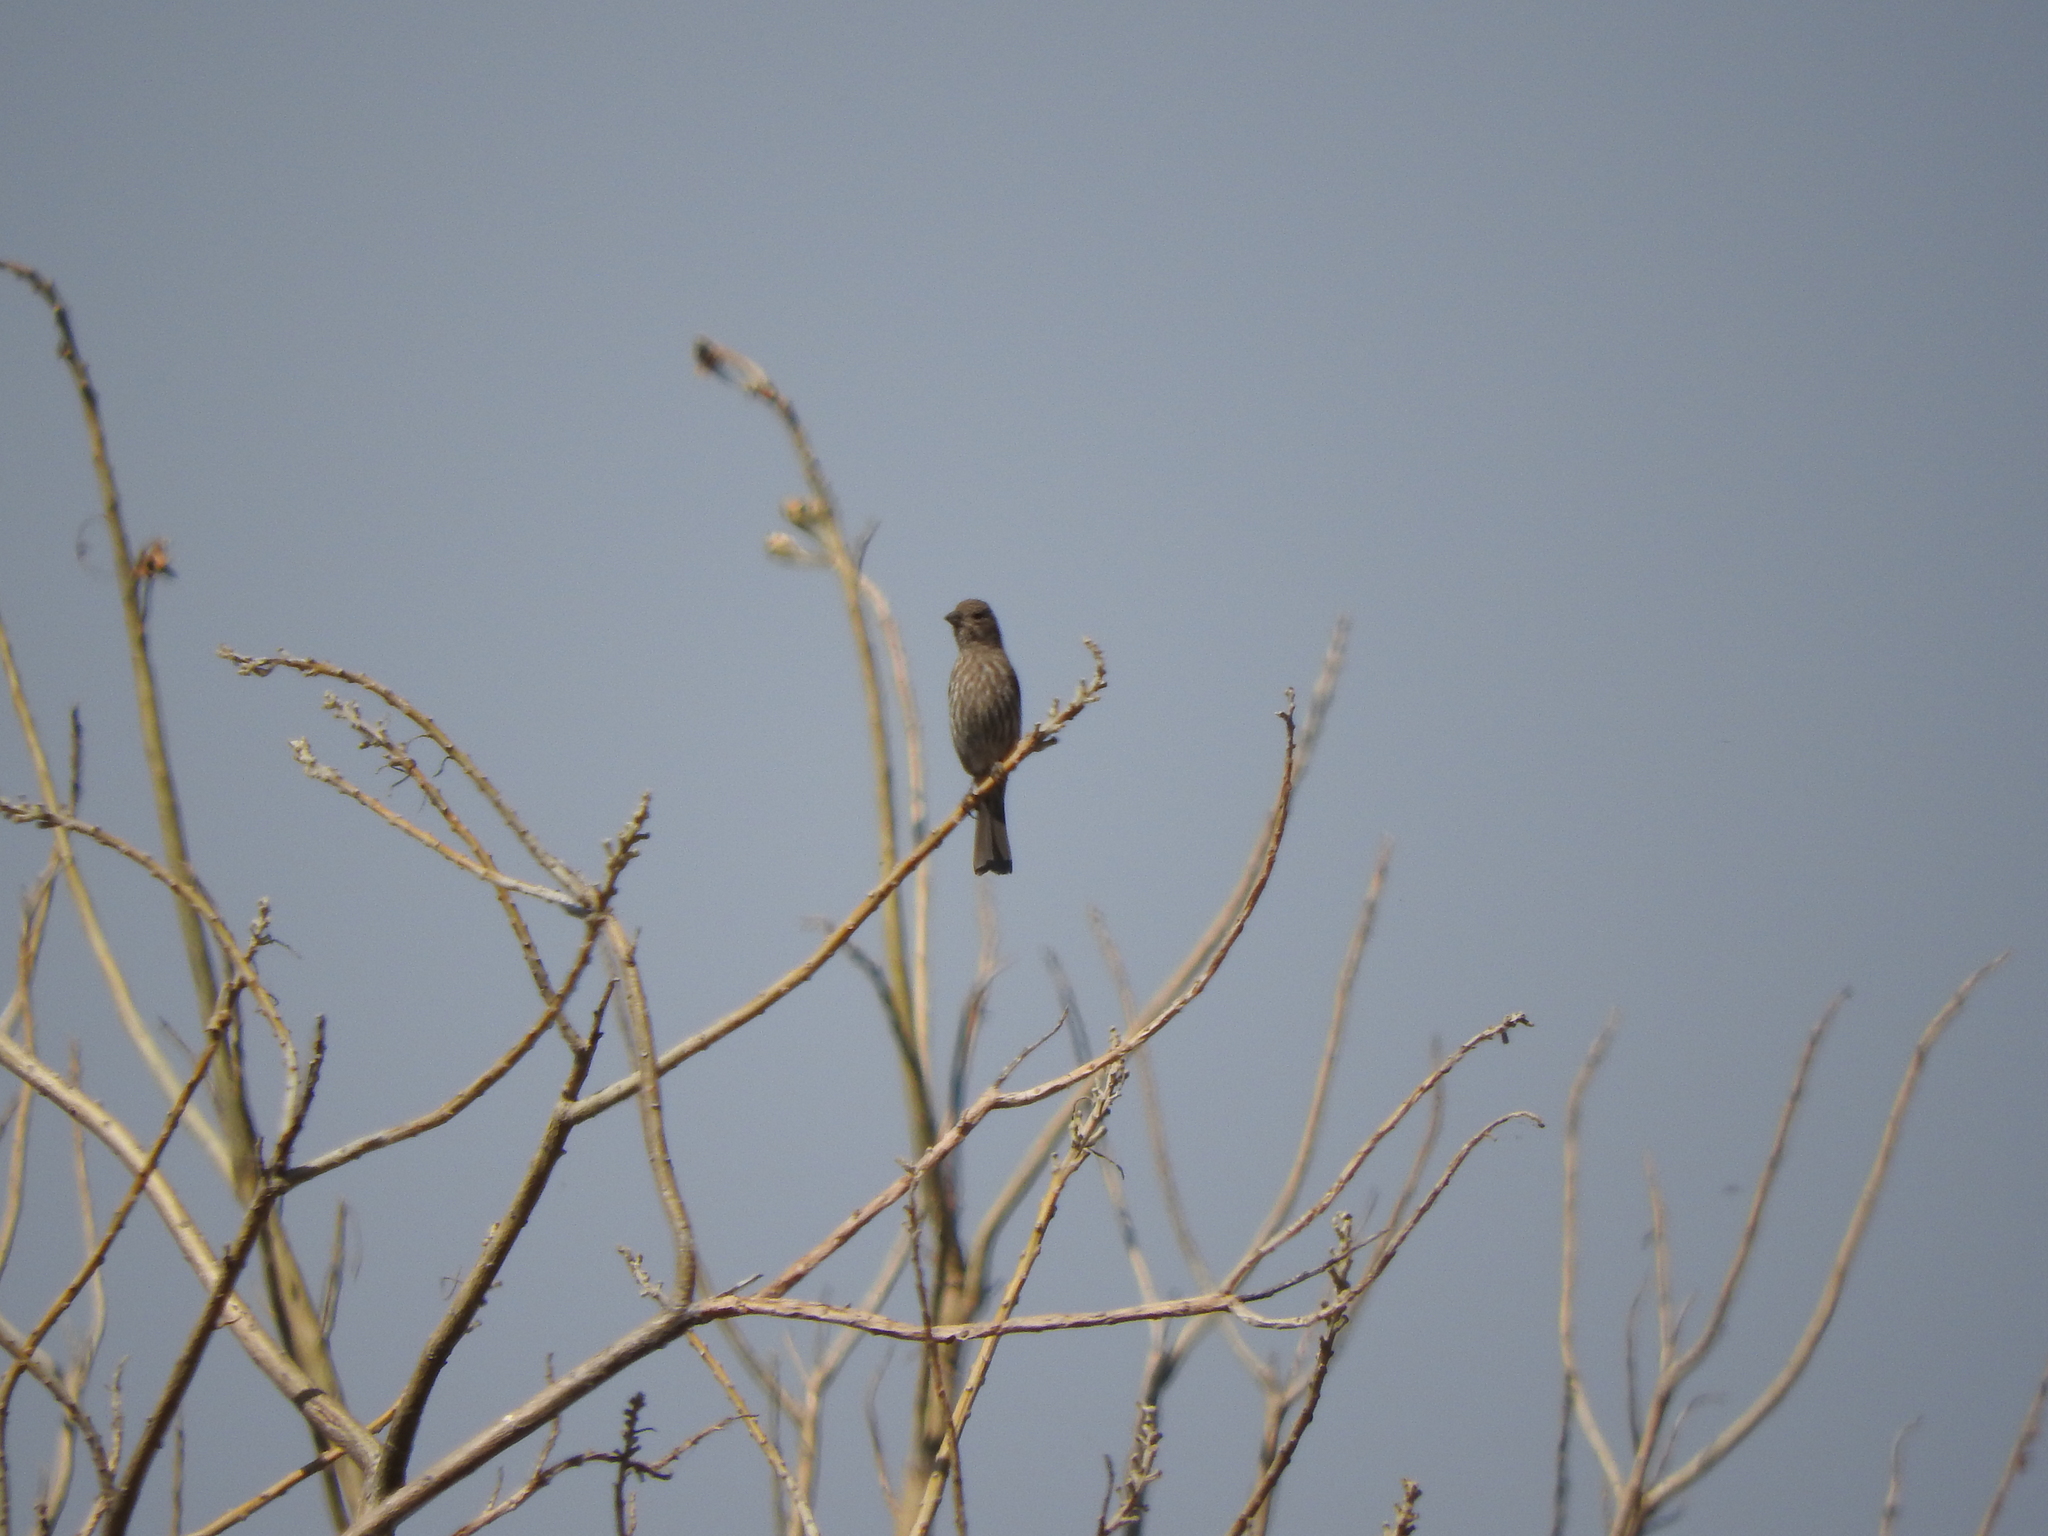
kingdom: Animalia
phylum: Chordata
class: Aves
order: Passeriformes
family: Fringillidae
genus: Haemorhous
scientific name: Haemorhous mexicanus
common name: House finch
